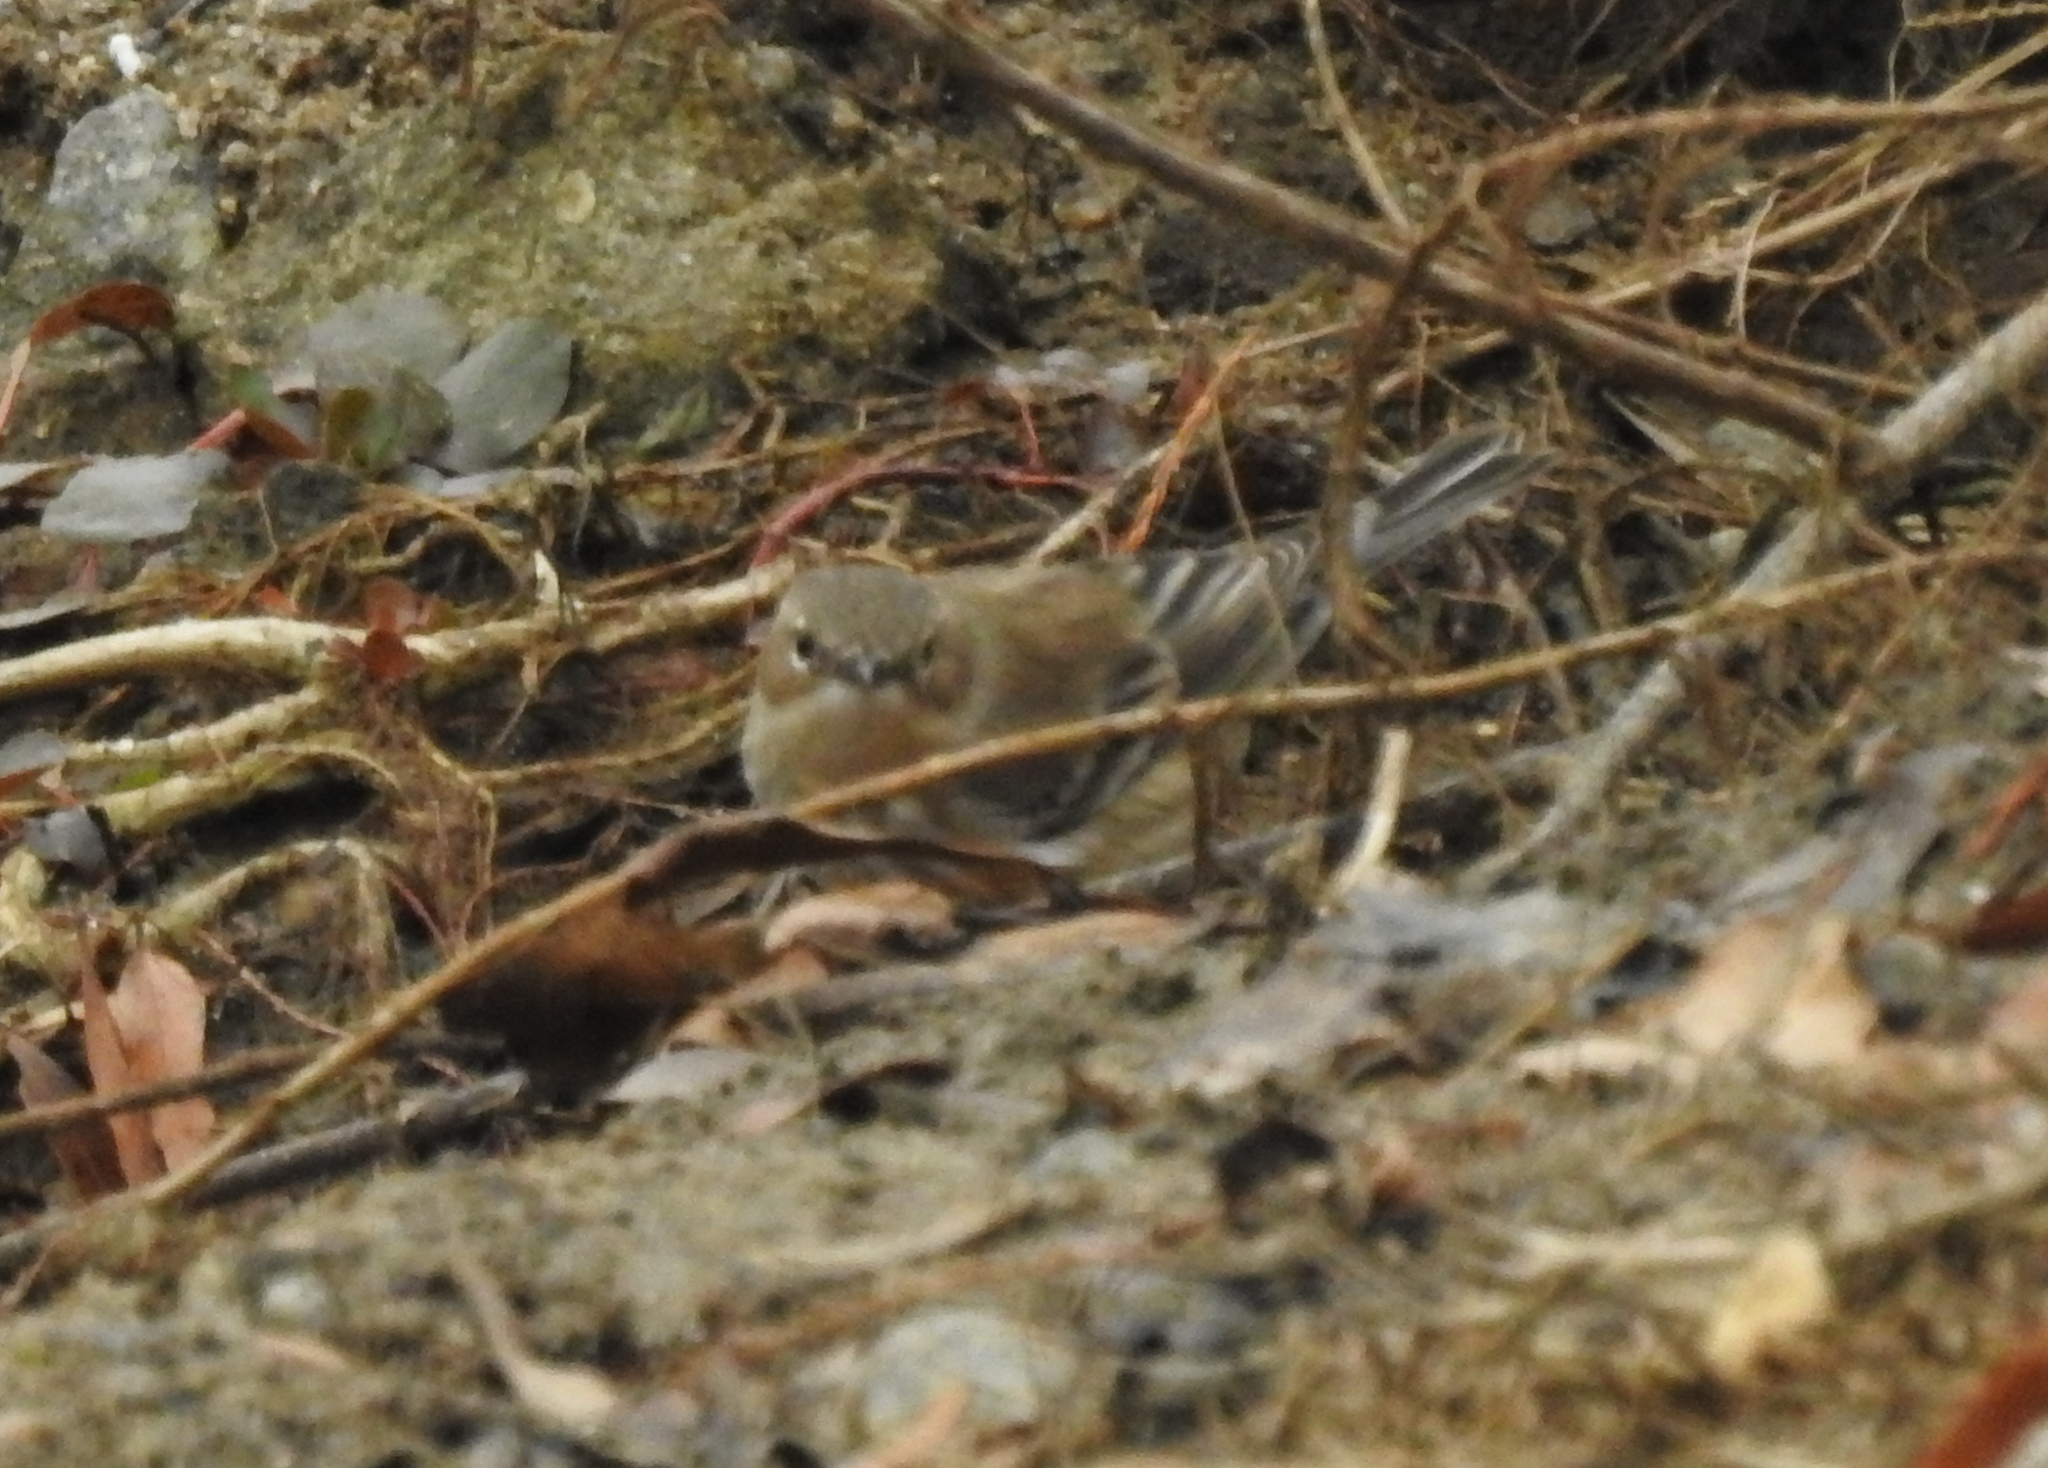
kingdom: Animalia
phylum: Chordata
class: Aves
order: Passeriformes
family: Parulidae
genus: Setophaga
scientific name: Setophaga coronata
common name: Myrtle warbler
